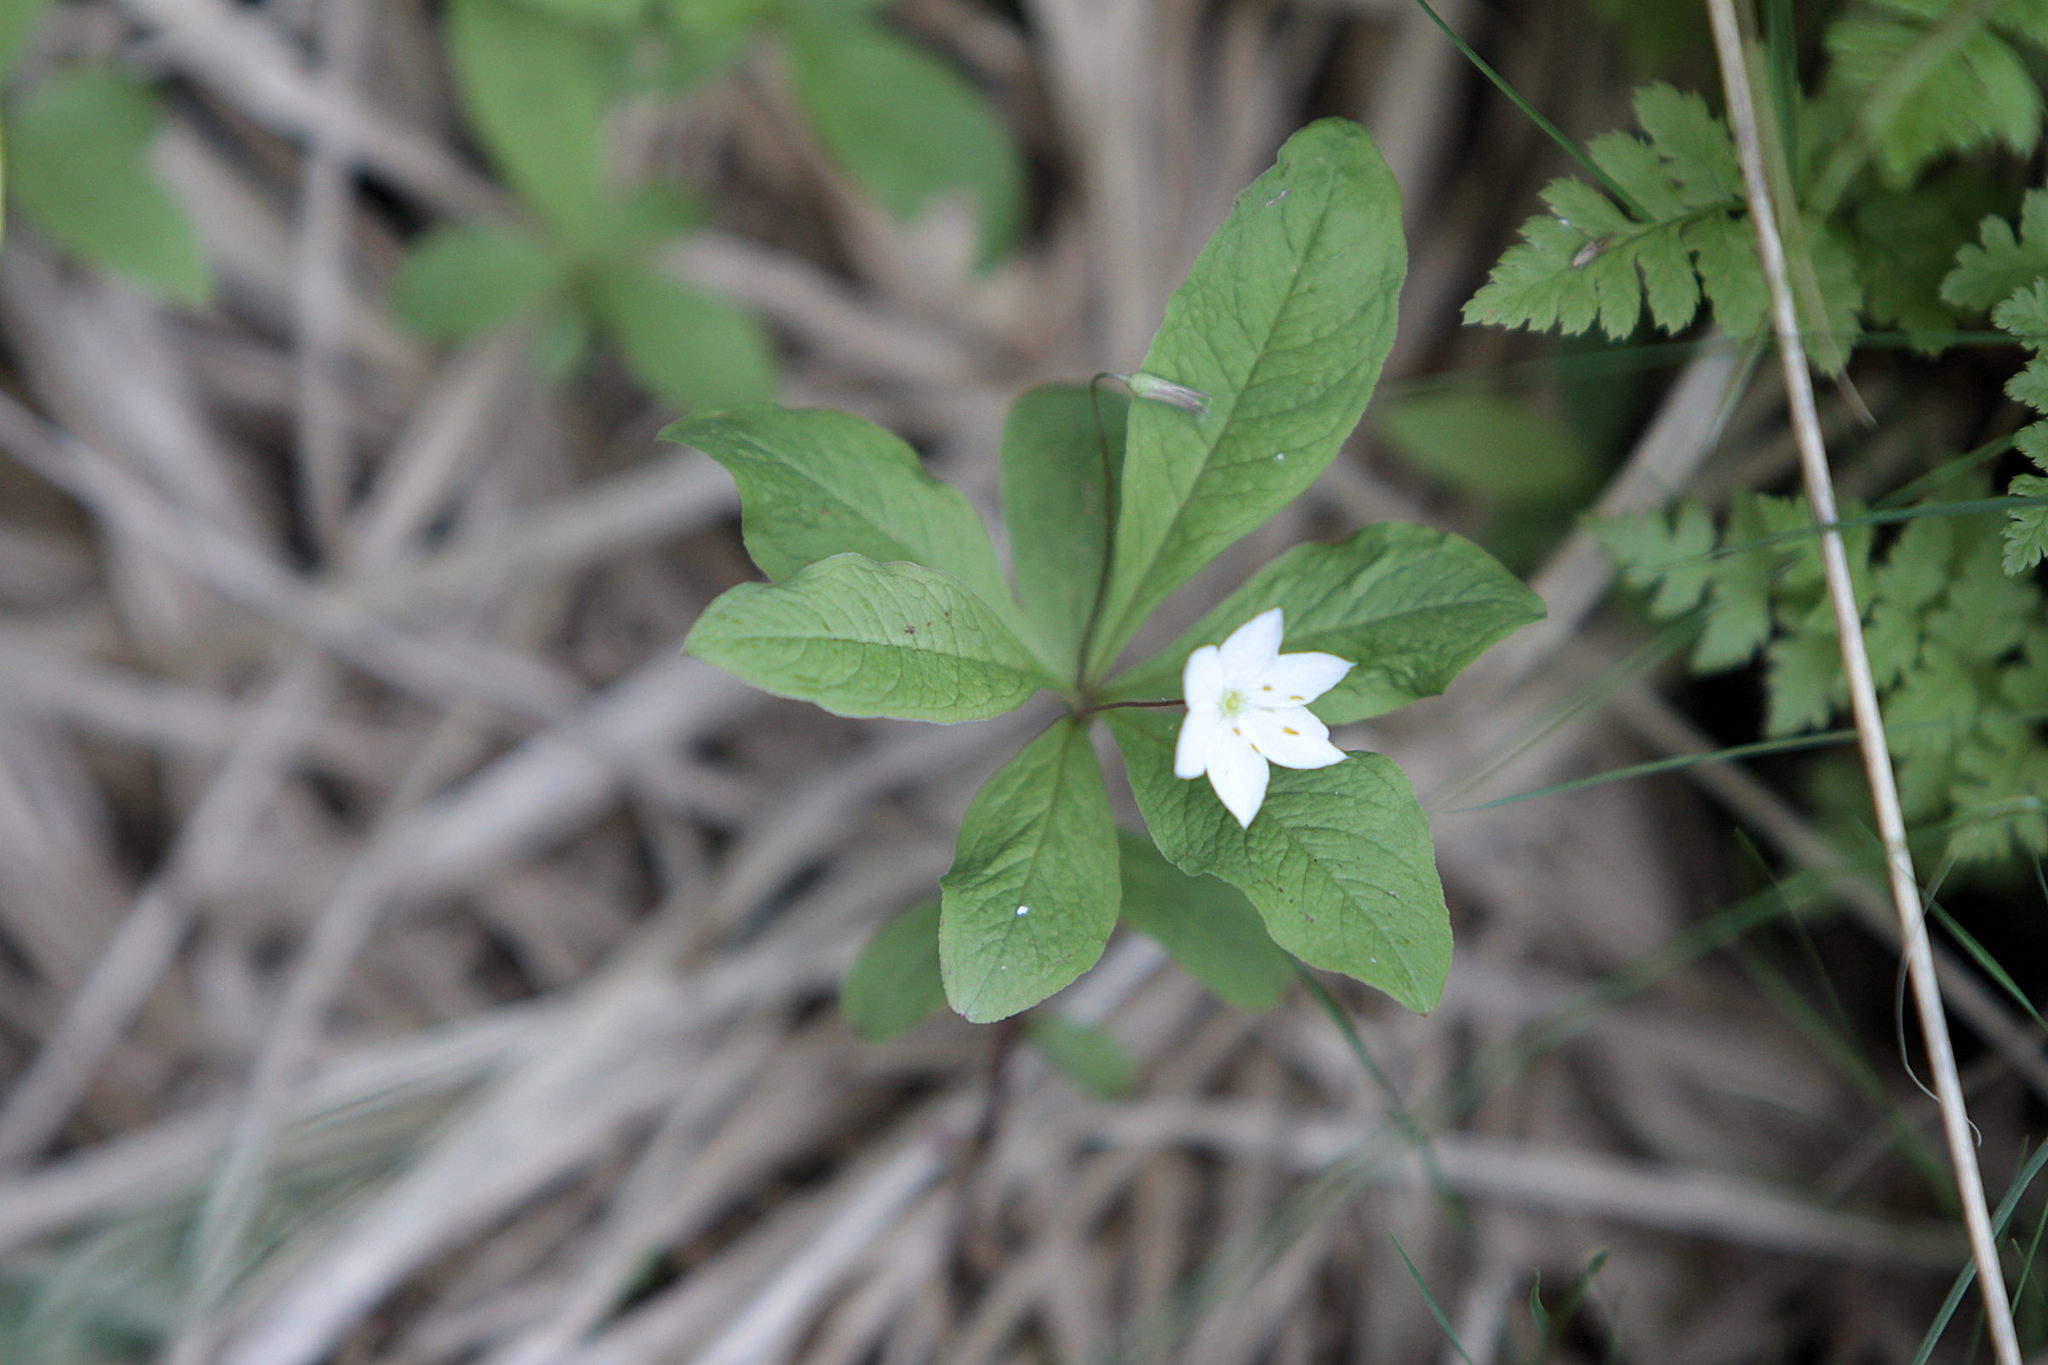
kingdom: Plantae
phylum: Tracheophyta
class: Magnoliopsida
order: Ericales
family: Primulaceae
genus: Lysimachia
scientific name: Lysimachia europaea
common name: Arctic starflower
